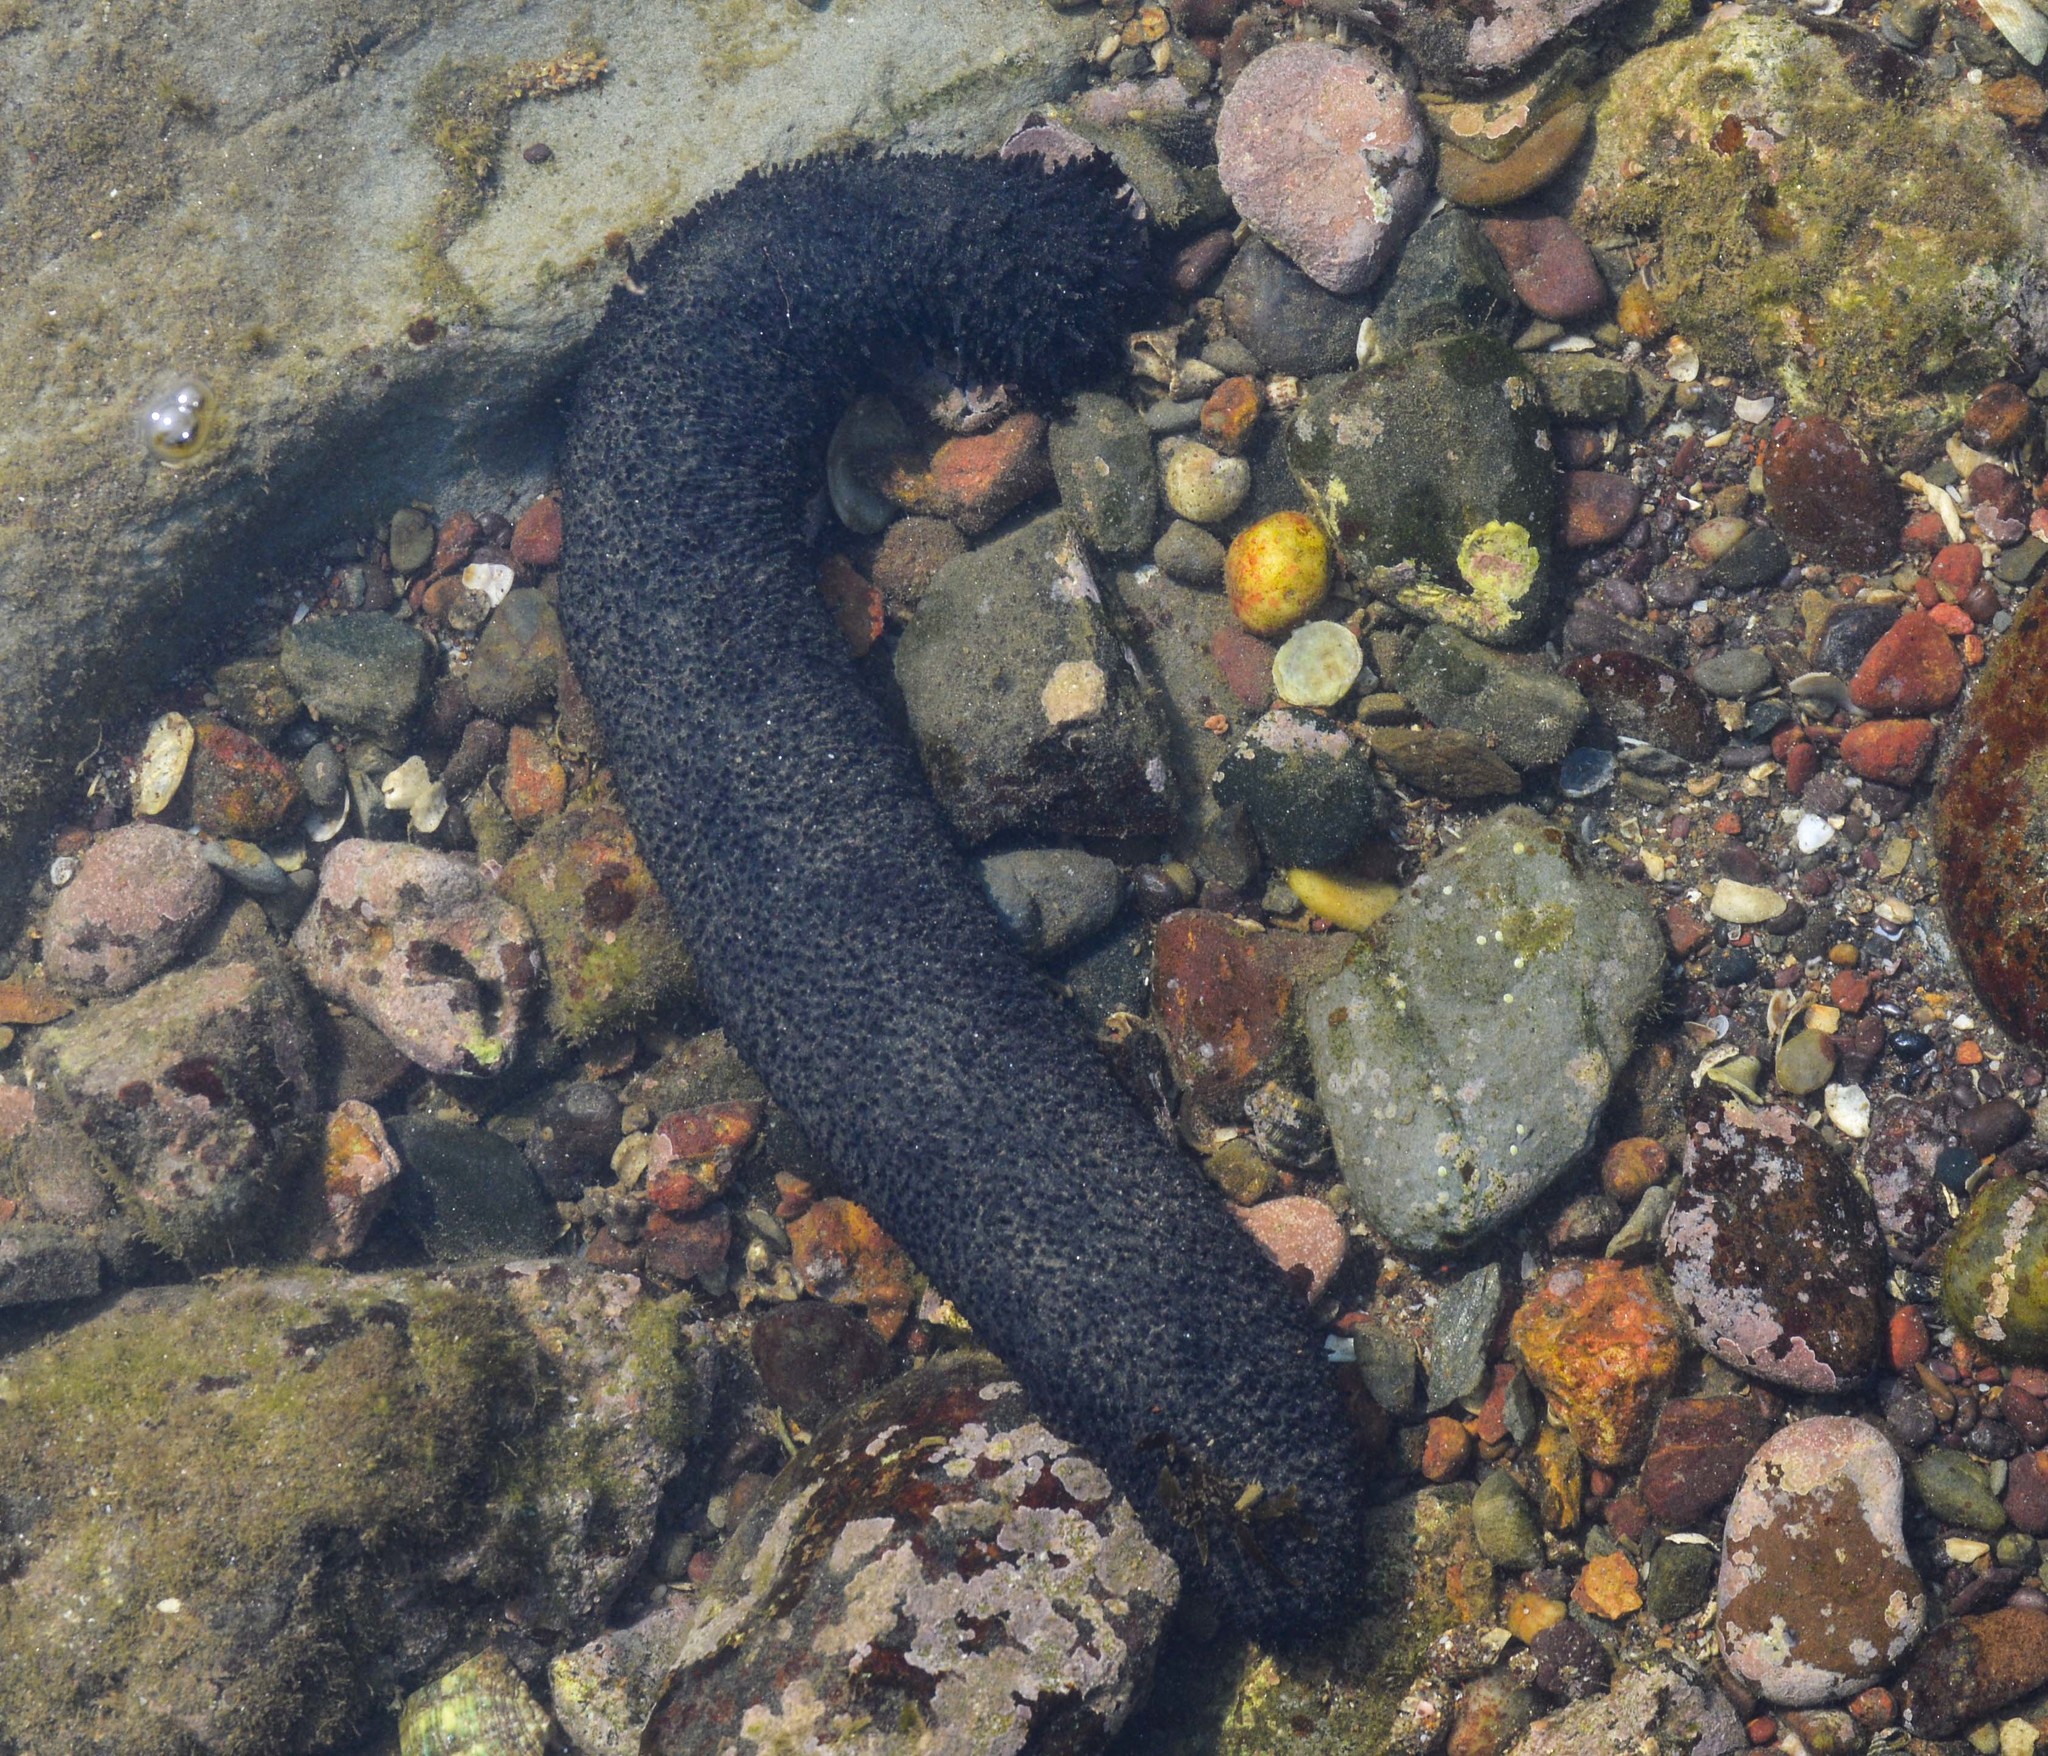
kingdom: Animalia
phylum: Echinodermata
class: Holothuroidea
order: Holothuriida
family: Holothuriidae
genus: Holothuria
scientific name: Holothuria leucospilota
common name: White thread fish
